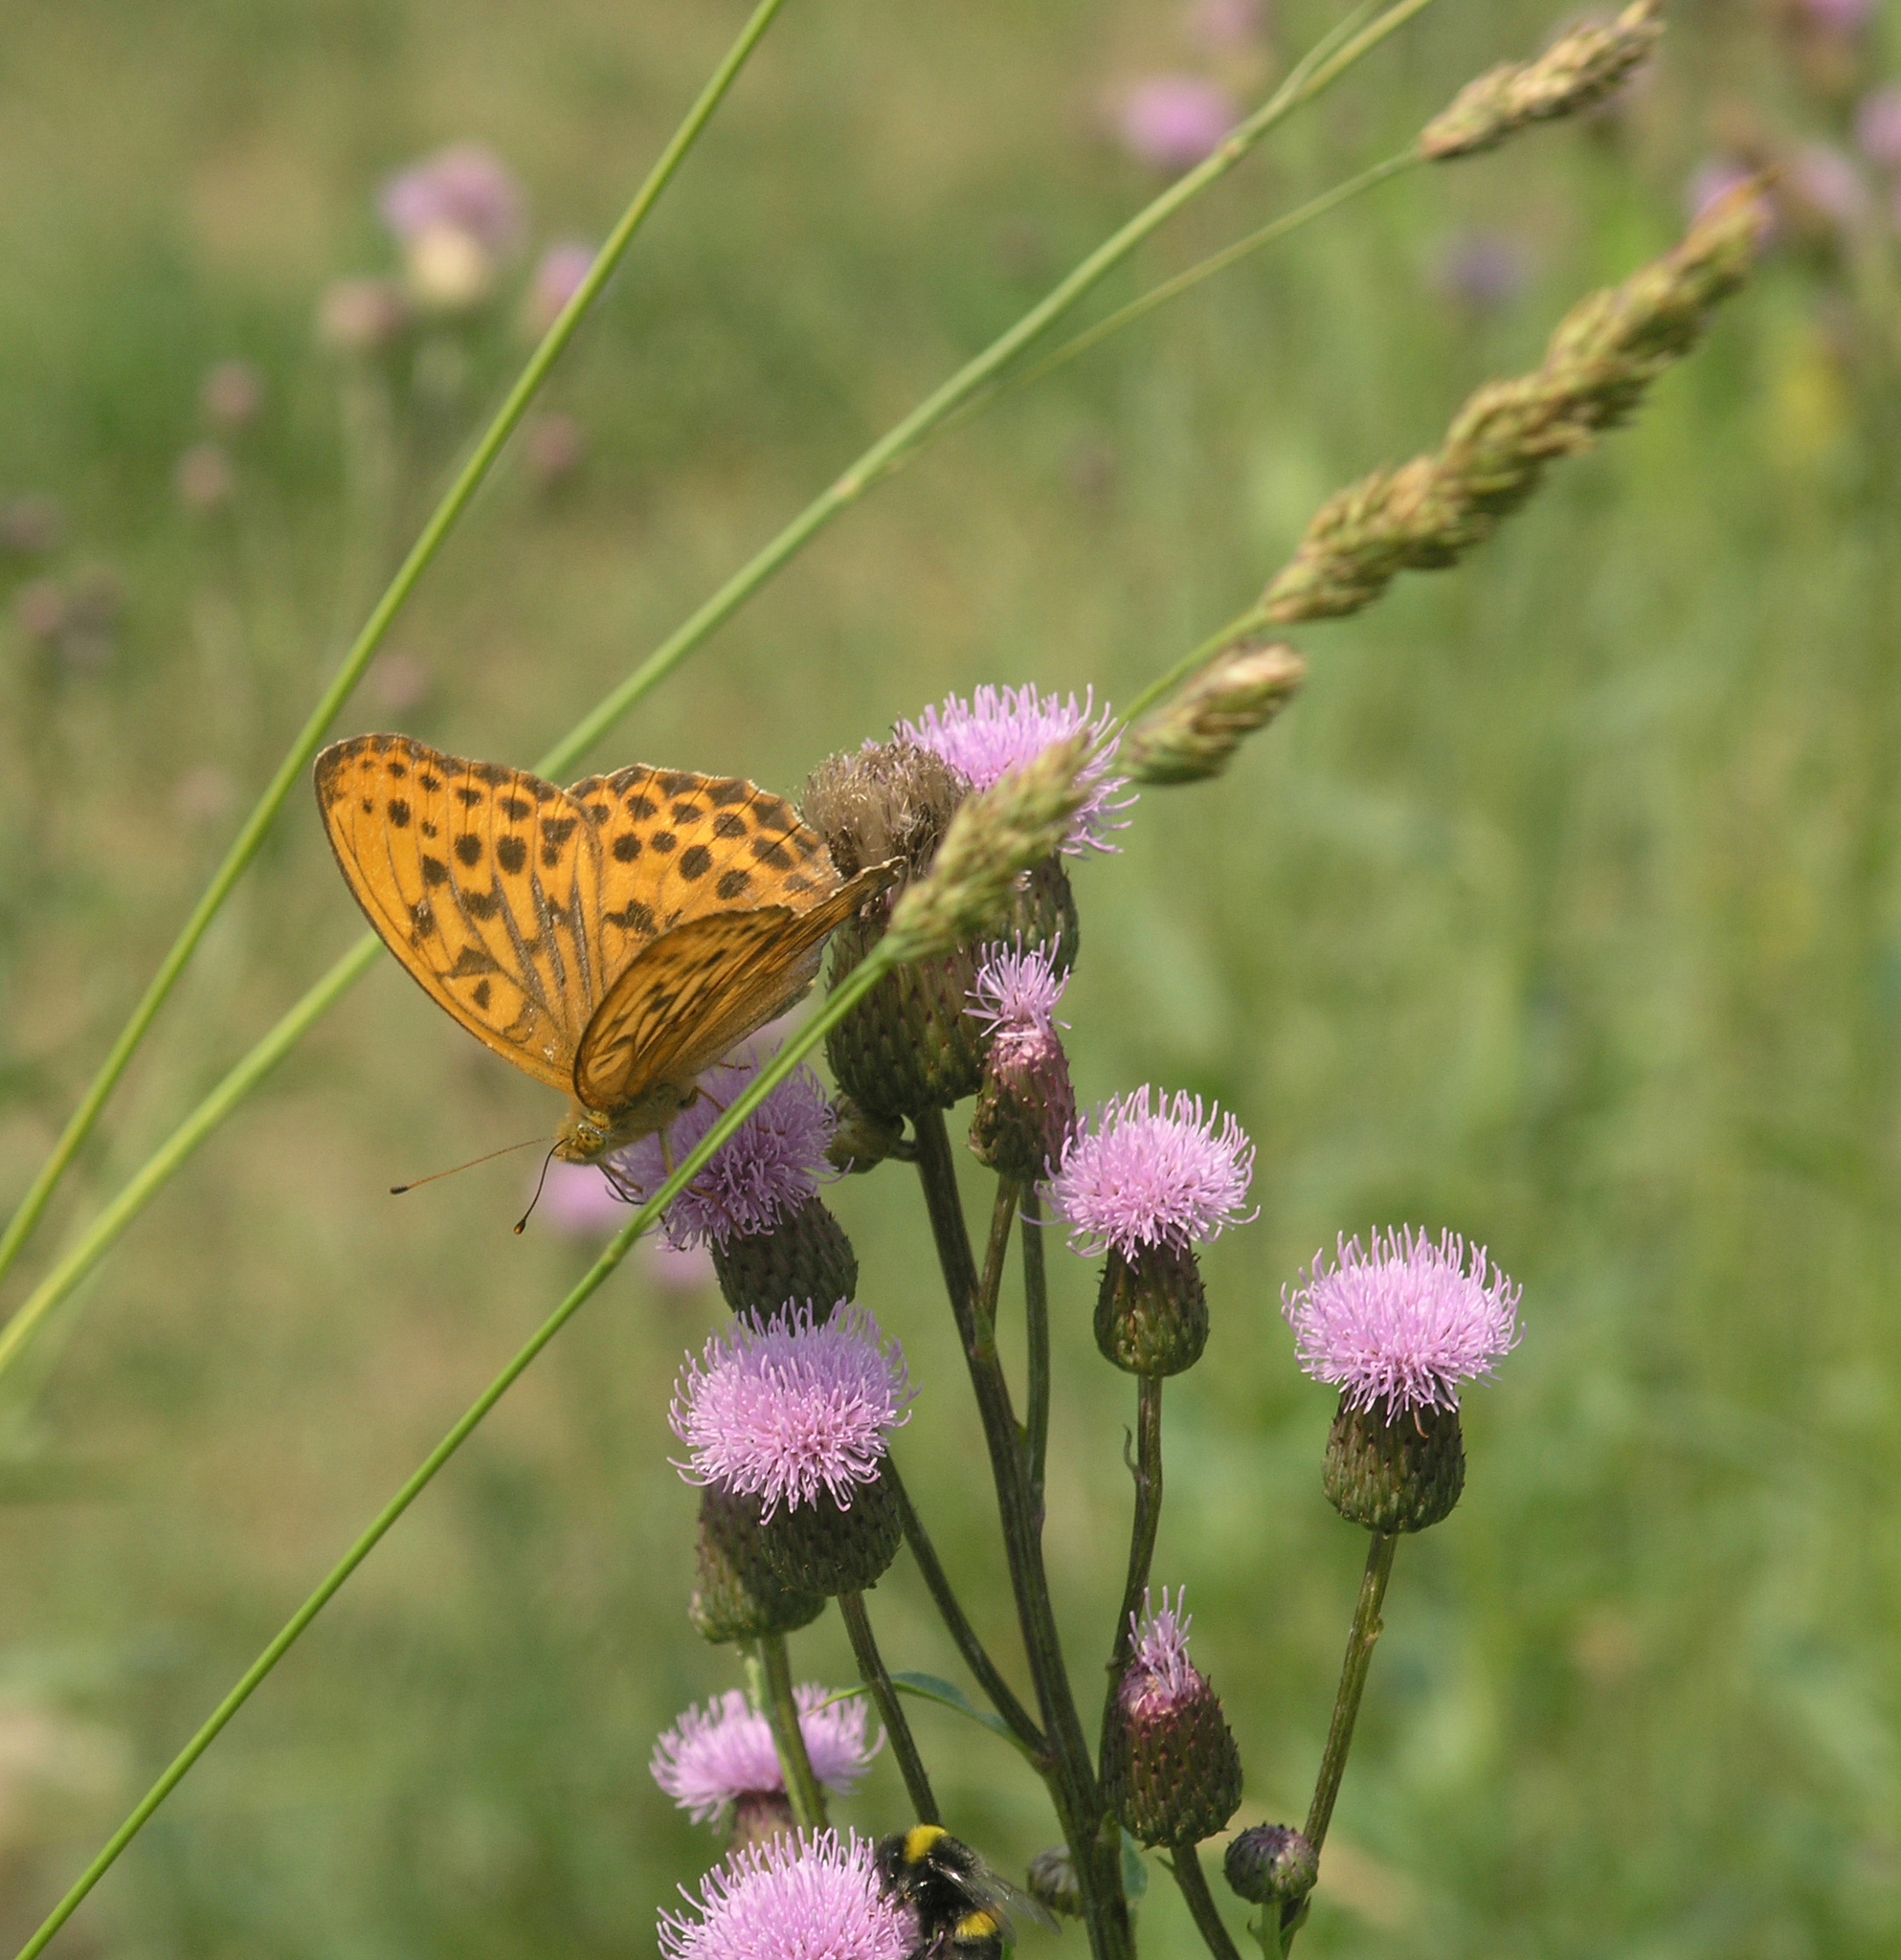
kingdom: Plantae
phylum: Tracheophyta
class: Magnoliopsida
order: Asterales
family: Asteraceae
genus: Cirsium
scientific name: Cirsium arvense
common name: Creeping thistle
